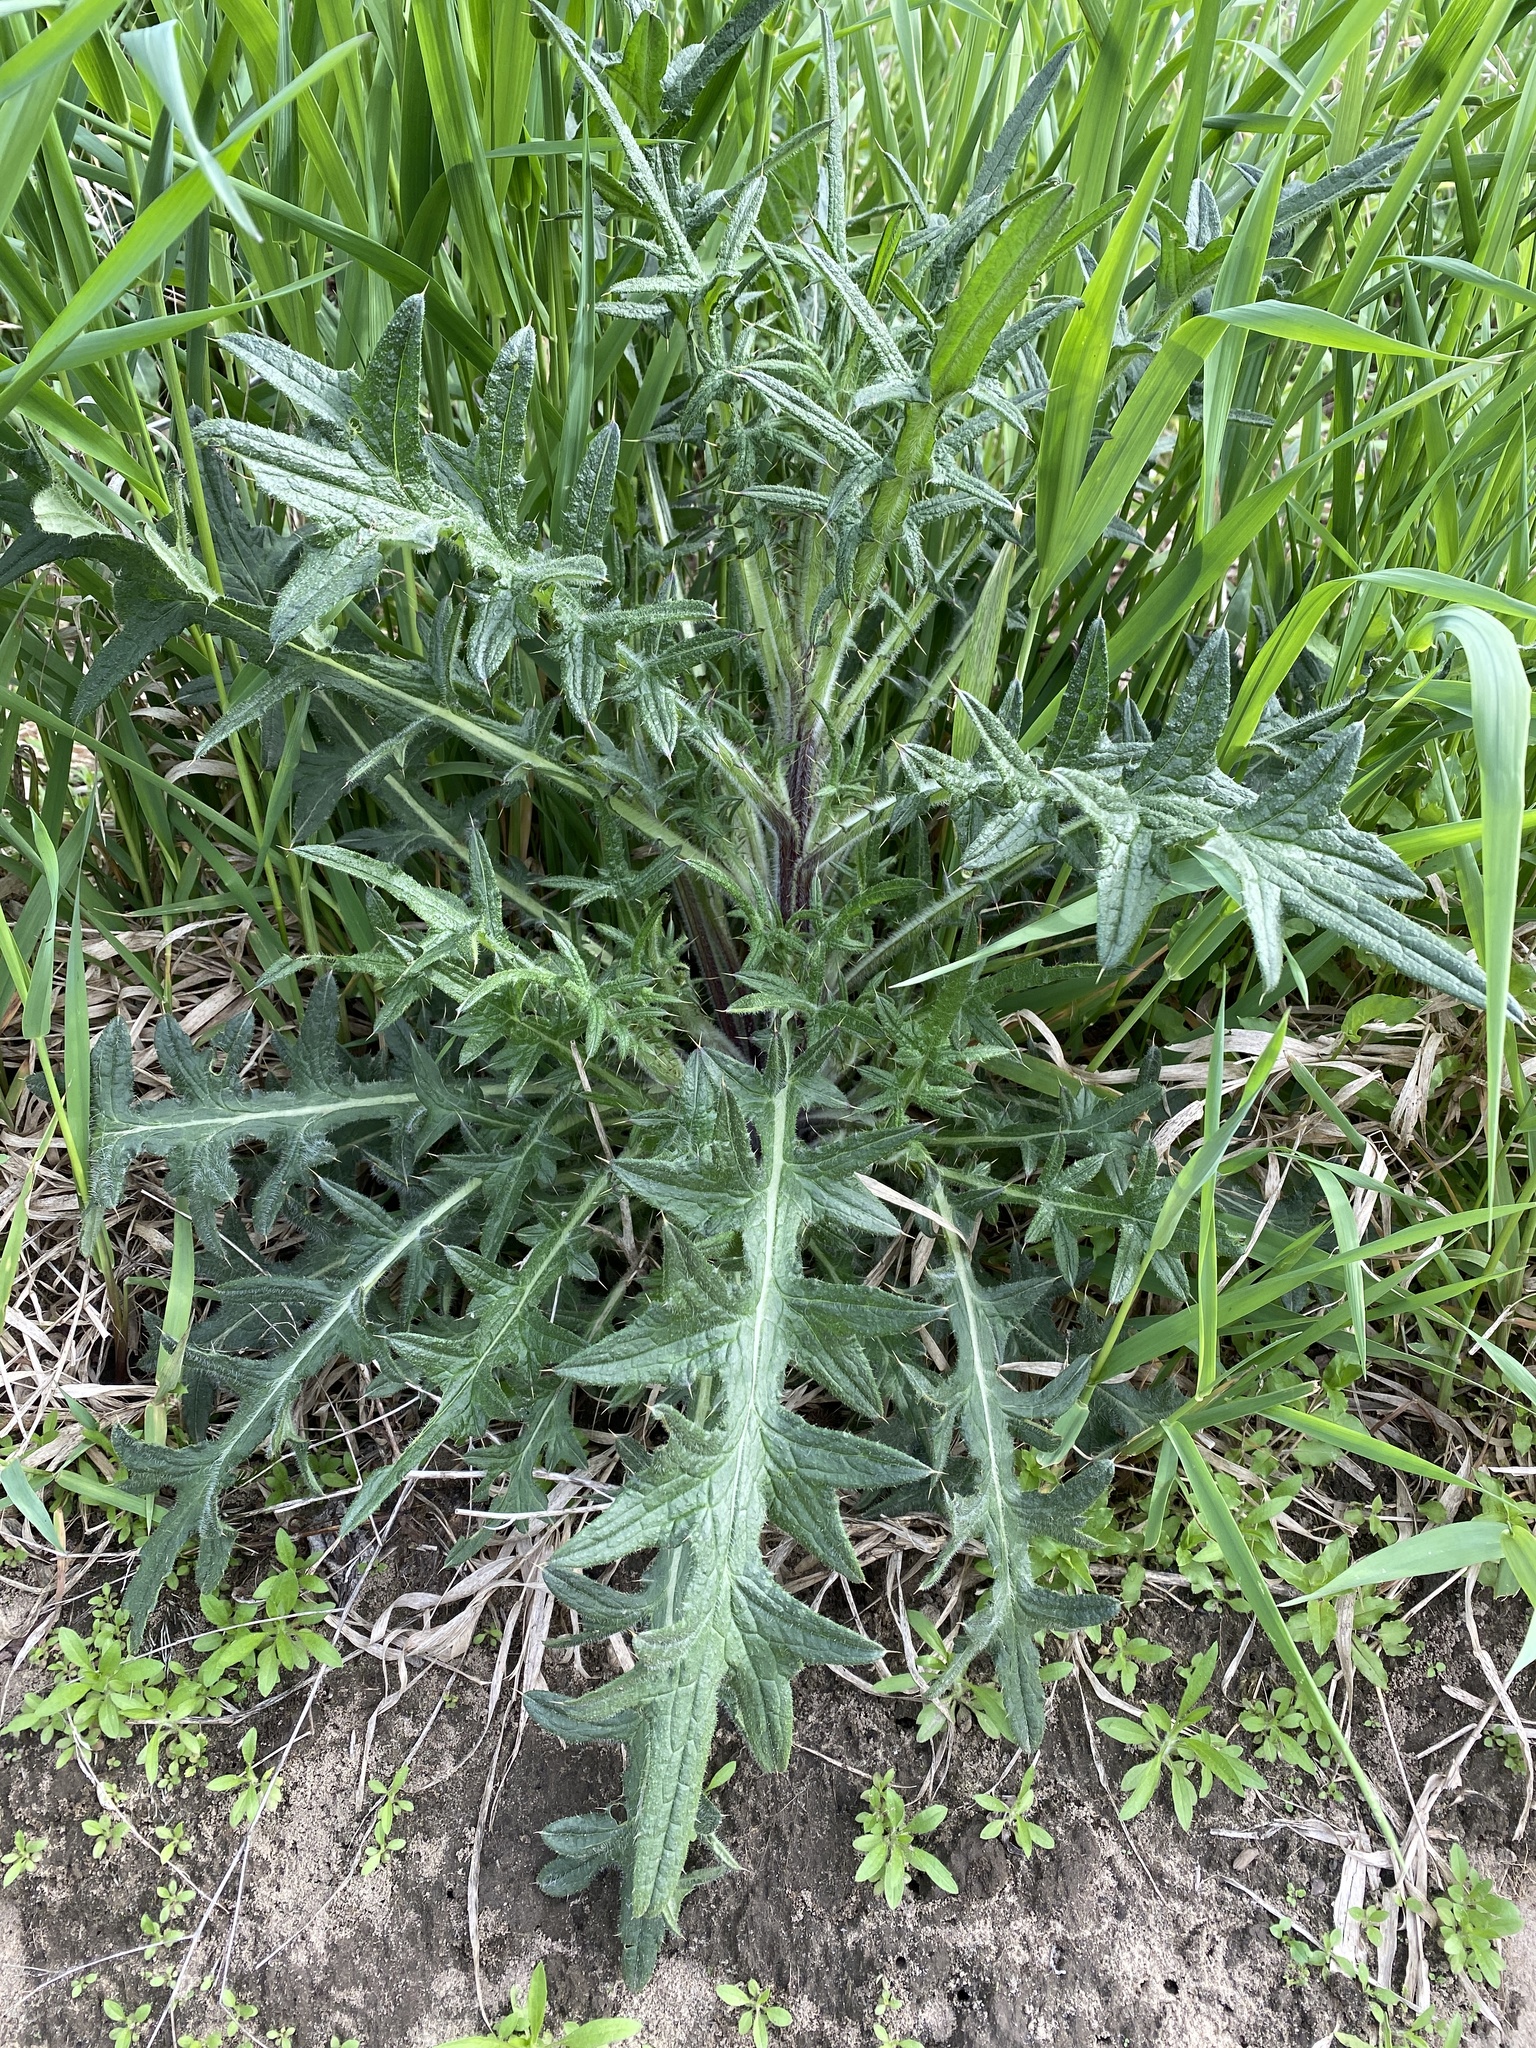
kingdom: Plantae
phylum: Tracheophyta
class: Magnoliopsida
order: Asterales
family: Asteraceae
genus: Cirsium
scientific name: Cirsium vulgare
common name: Bull thistle
